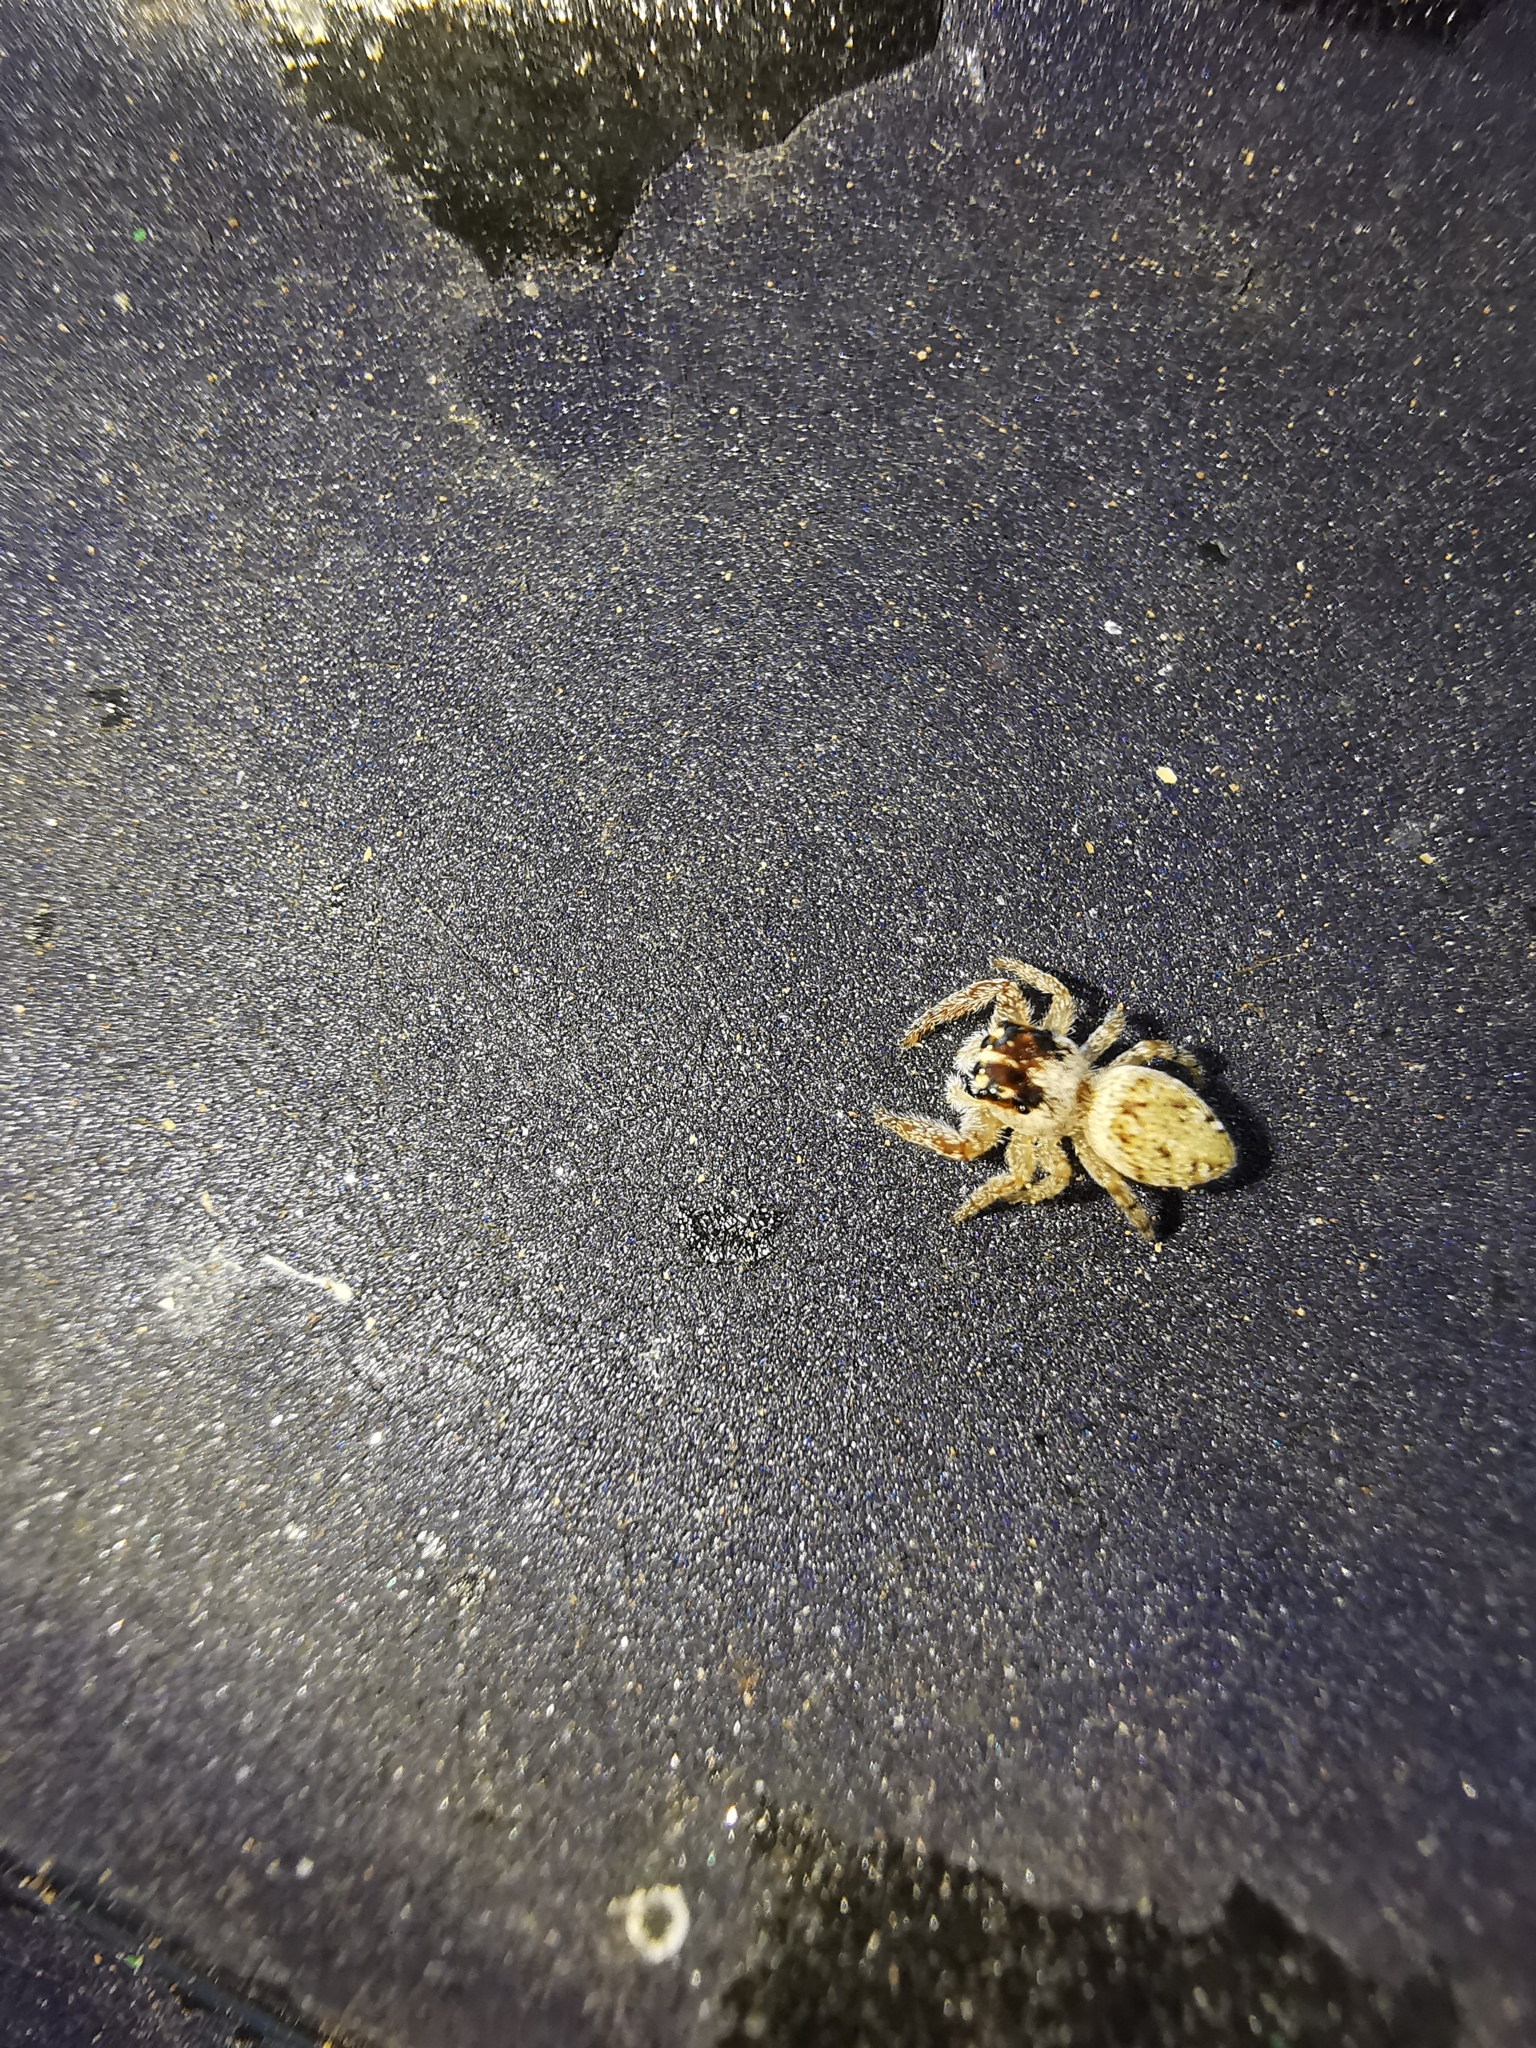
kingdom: Animalia
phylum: Arthropoda
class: Arachnida
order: Araneae
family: Salticidae
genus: Carrhotus
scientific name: Carrhotus xanthogramma
